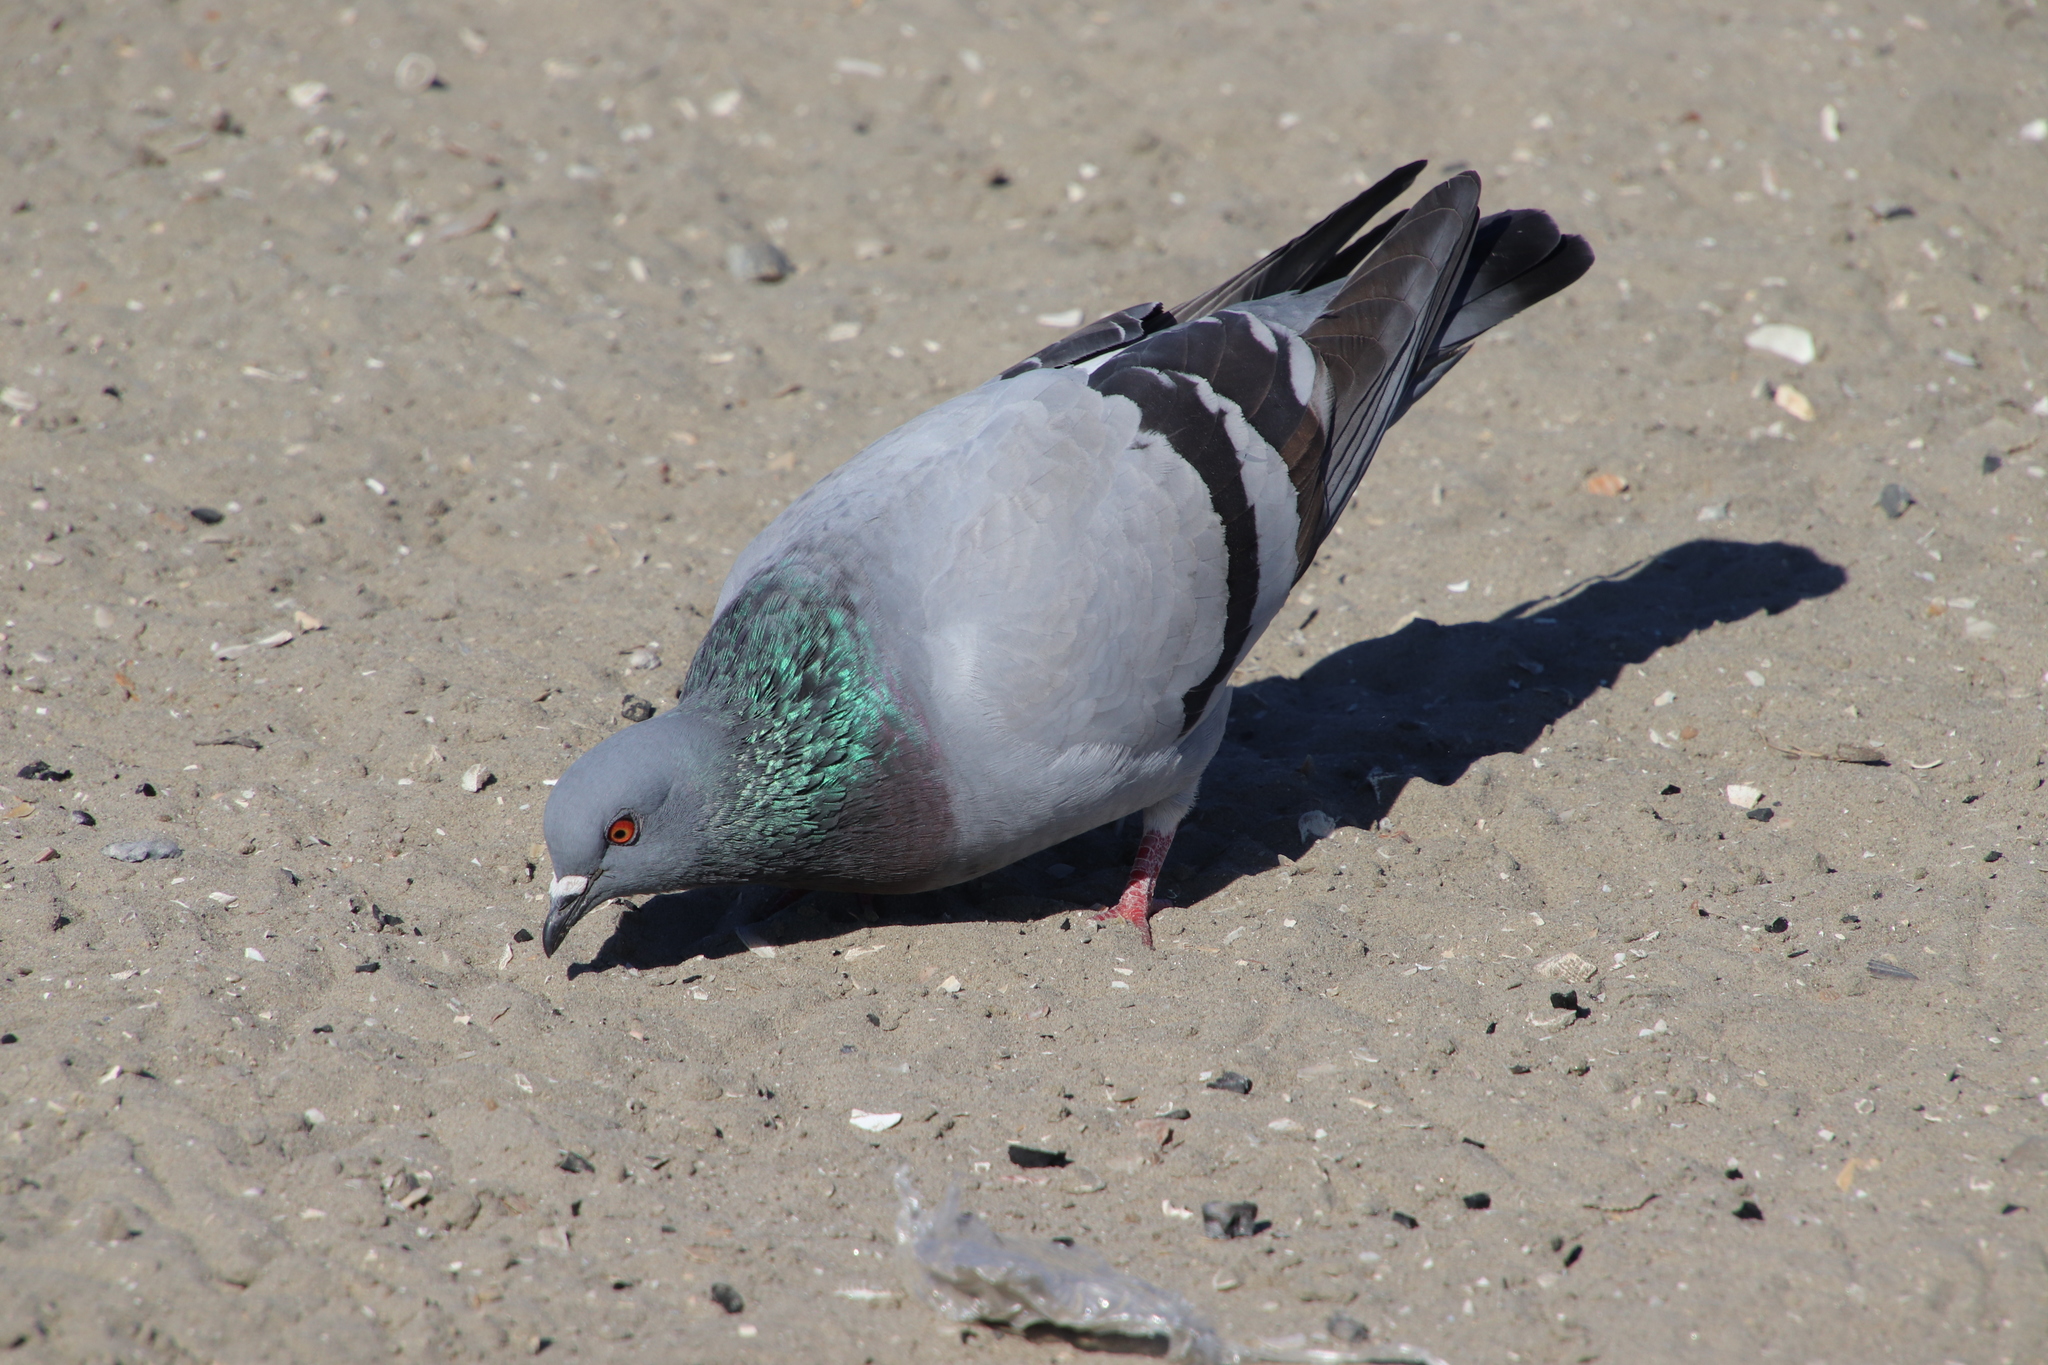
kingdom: Animalia
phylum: Chordata
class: Aves
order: Columbiformes
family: Columbidae
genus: Columba
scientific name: Columba livia
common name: Rock pigeon
